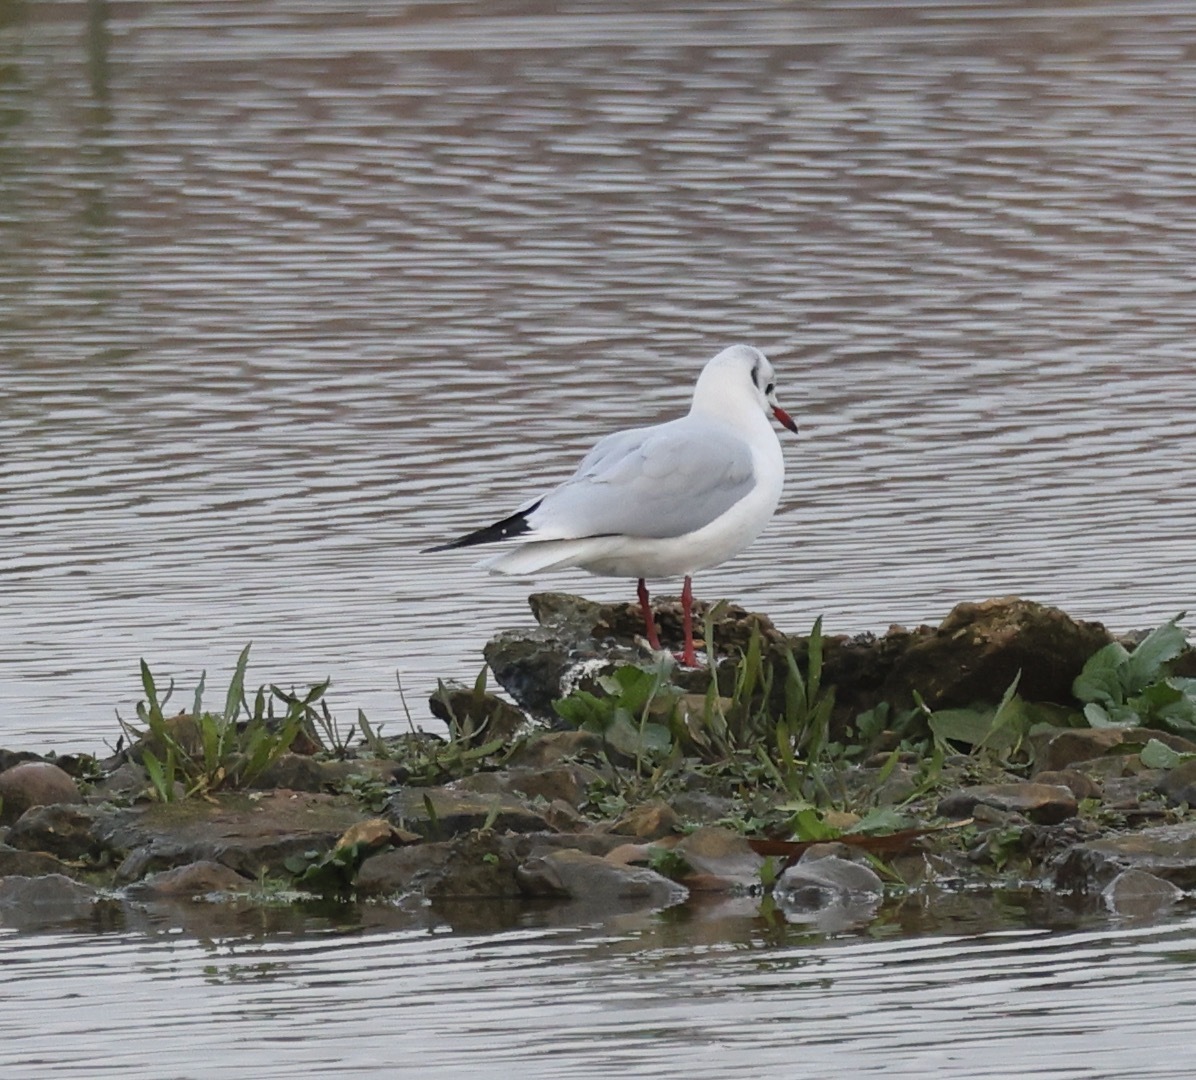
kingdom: Animalia
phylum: Chordata
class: Aves
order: Charadriiformes
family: Laridae
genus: Chroicocephalus
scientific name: Chroicocephalus ridibundus
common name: Black-headed gull
